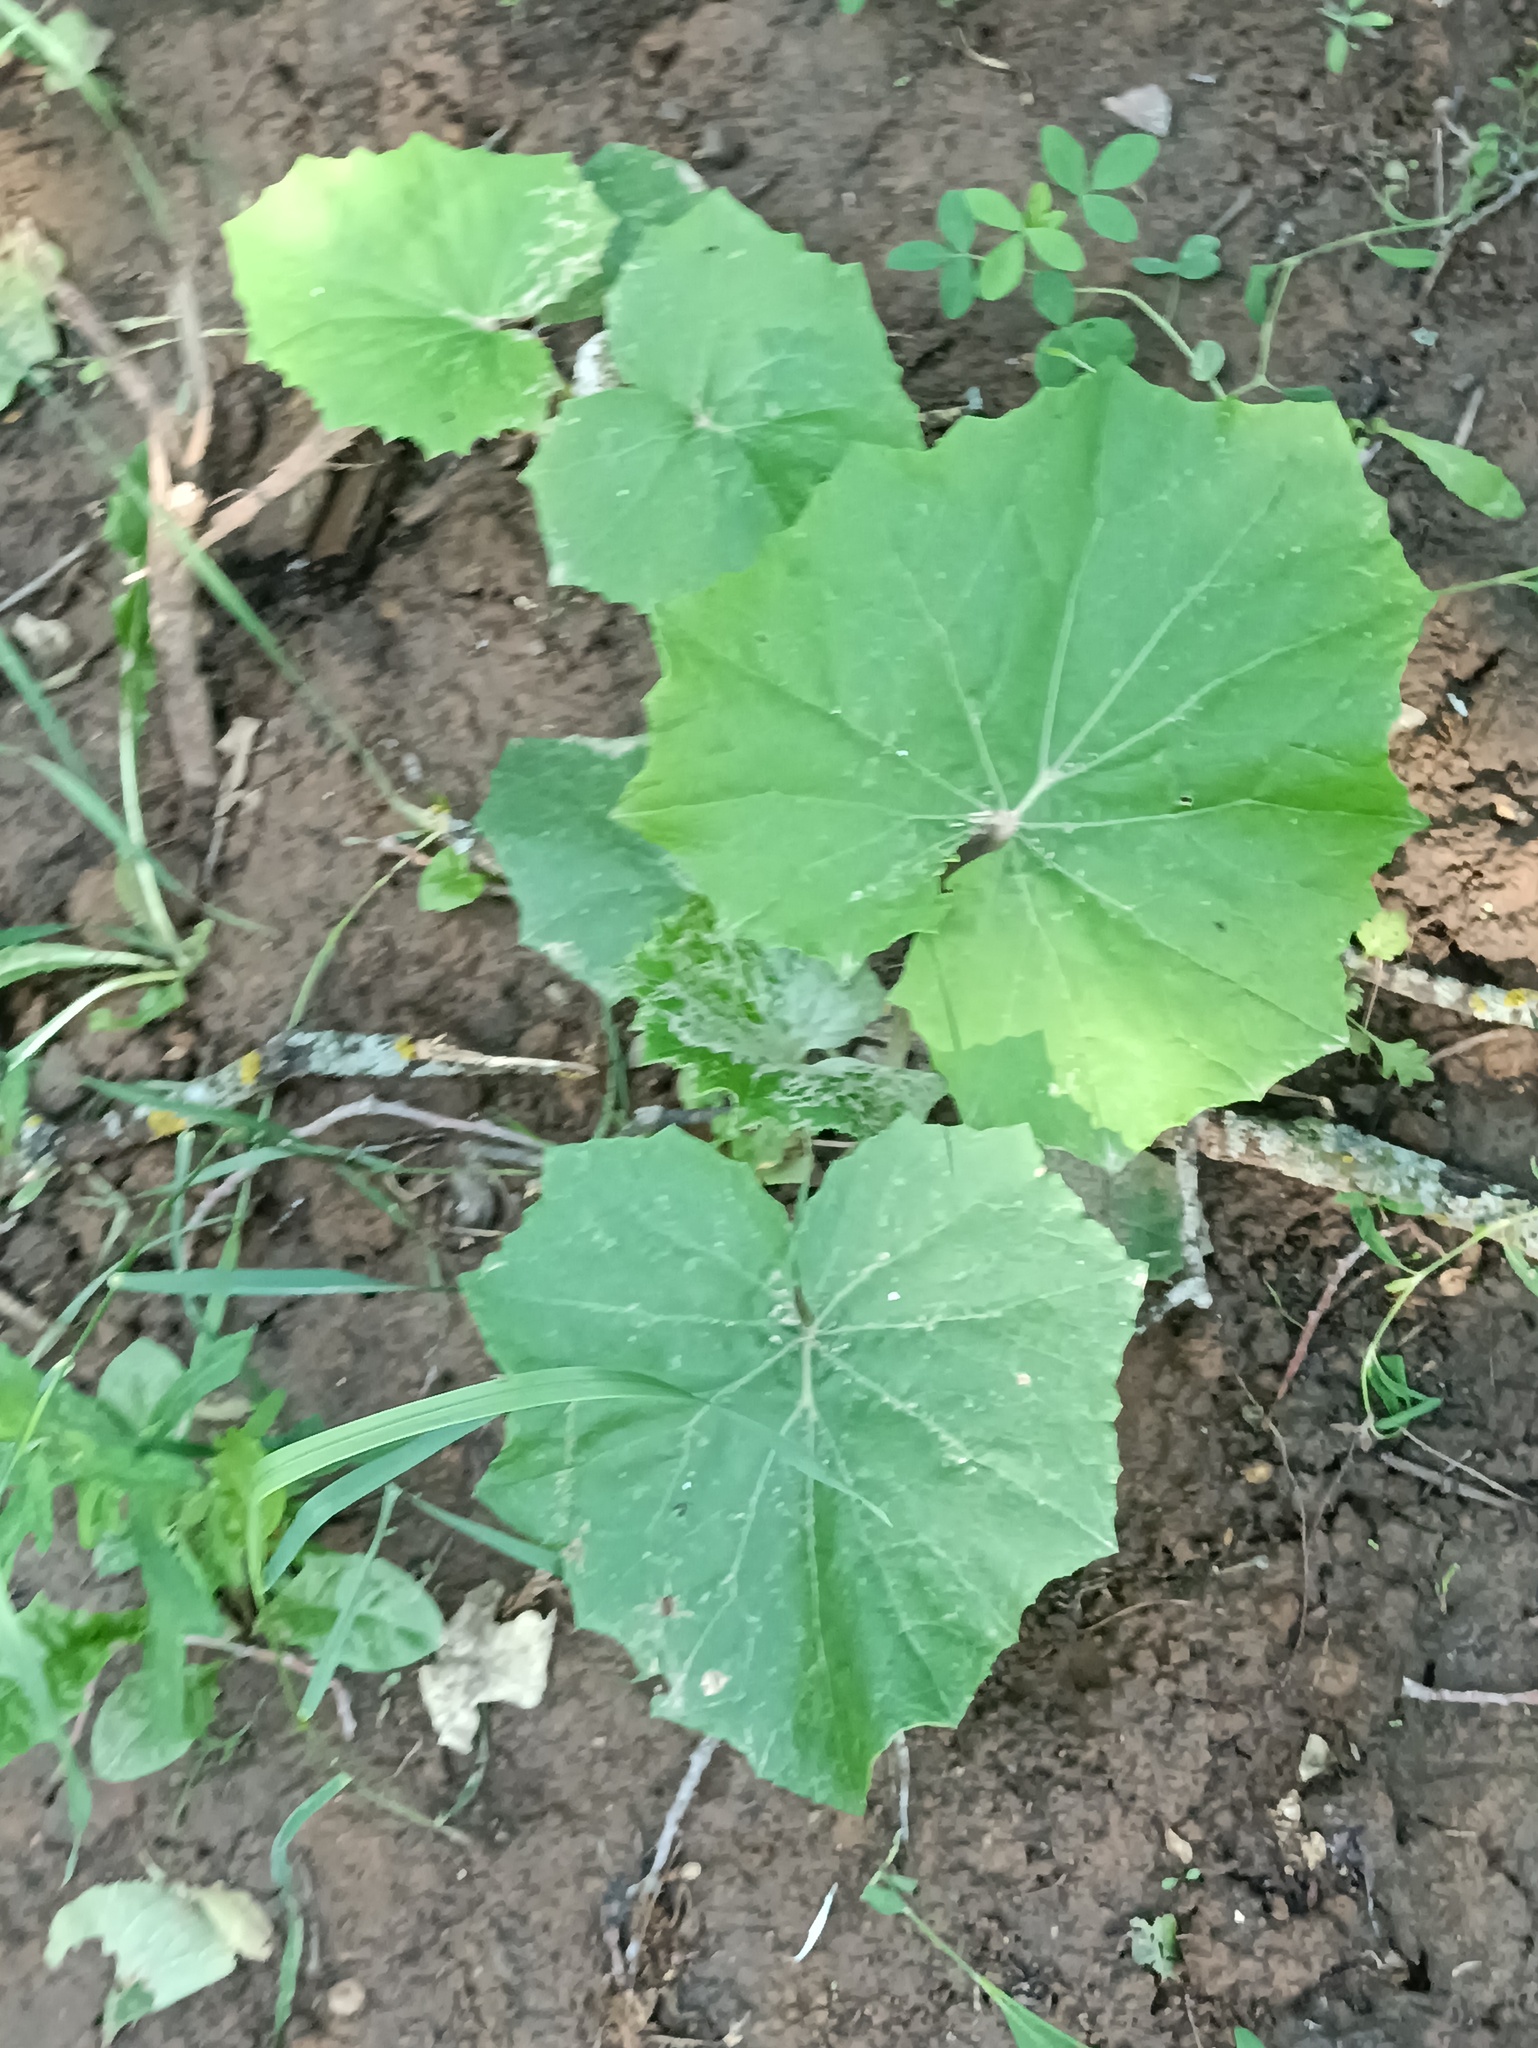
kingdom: Plantae
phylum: Tracheophyta
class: Magnoliopsida
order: Asterales
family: Asteraceae
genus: Tussilago
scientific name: Tussilago farfara
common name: Coltsfoot
